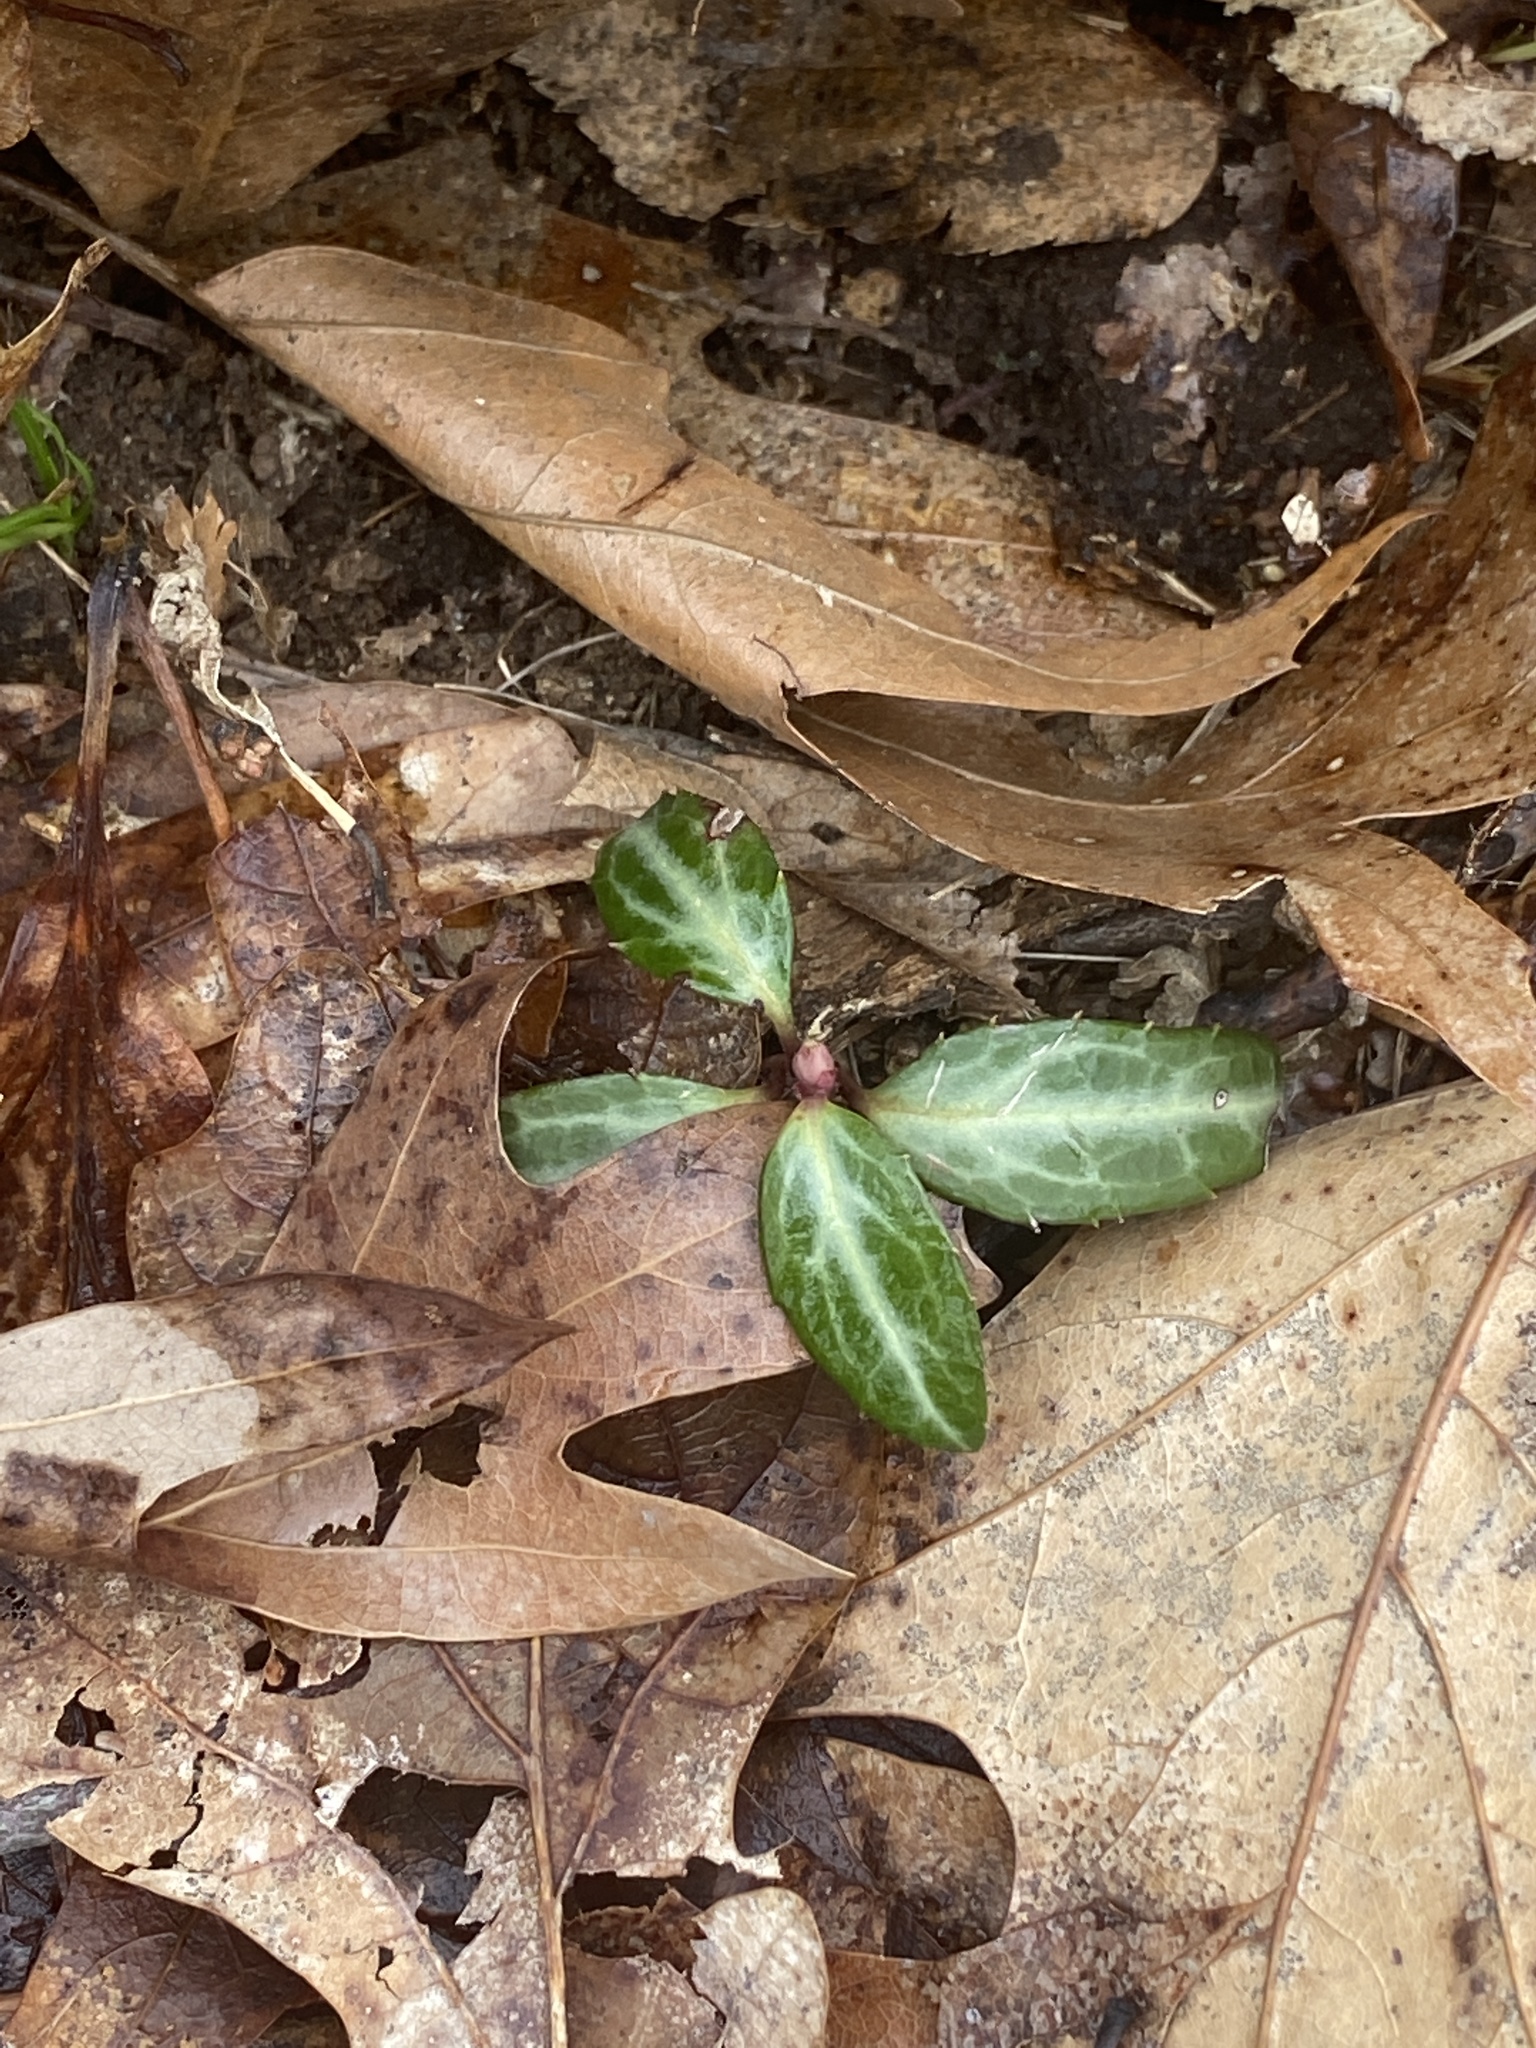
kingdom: Plantae
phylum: Tracheophyta
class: Magnoliopsida
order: Ericales
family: Ericaceae
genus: Chimaphila
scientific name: Chimaphila maculata
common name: Spotted pipsissewa
